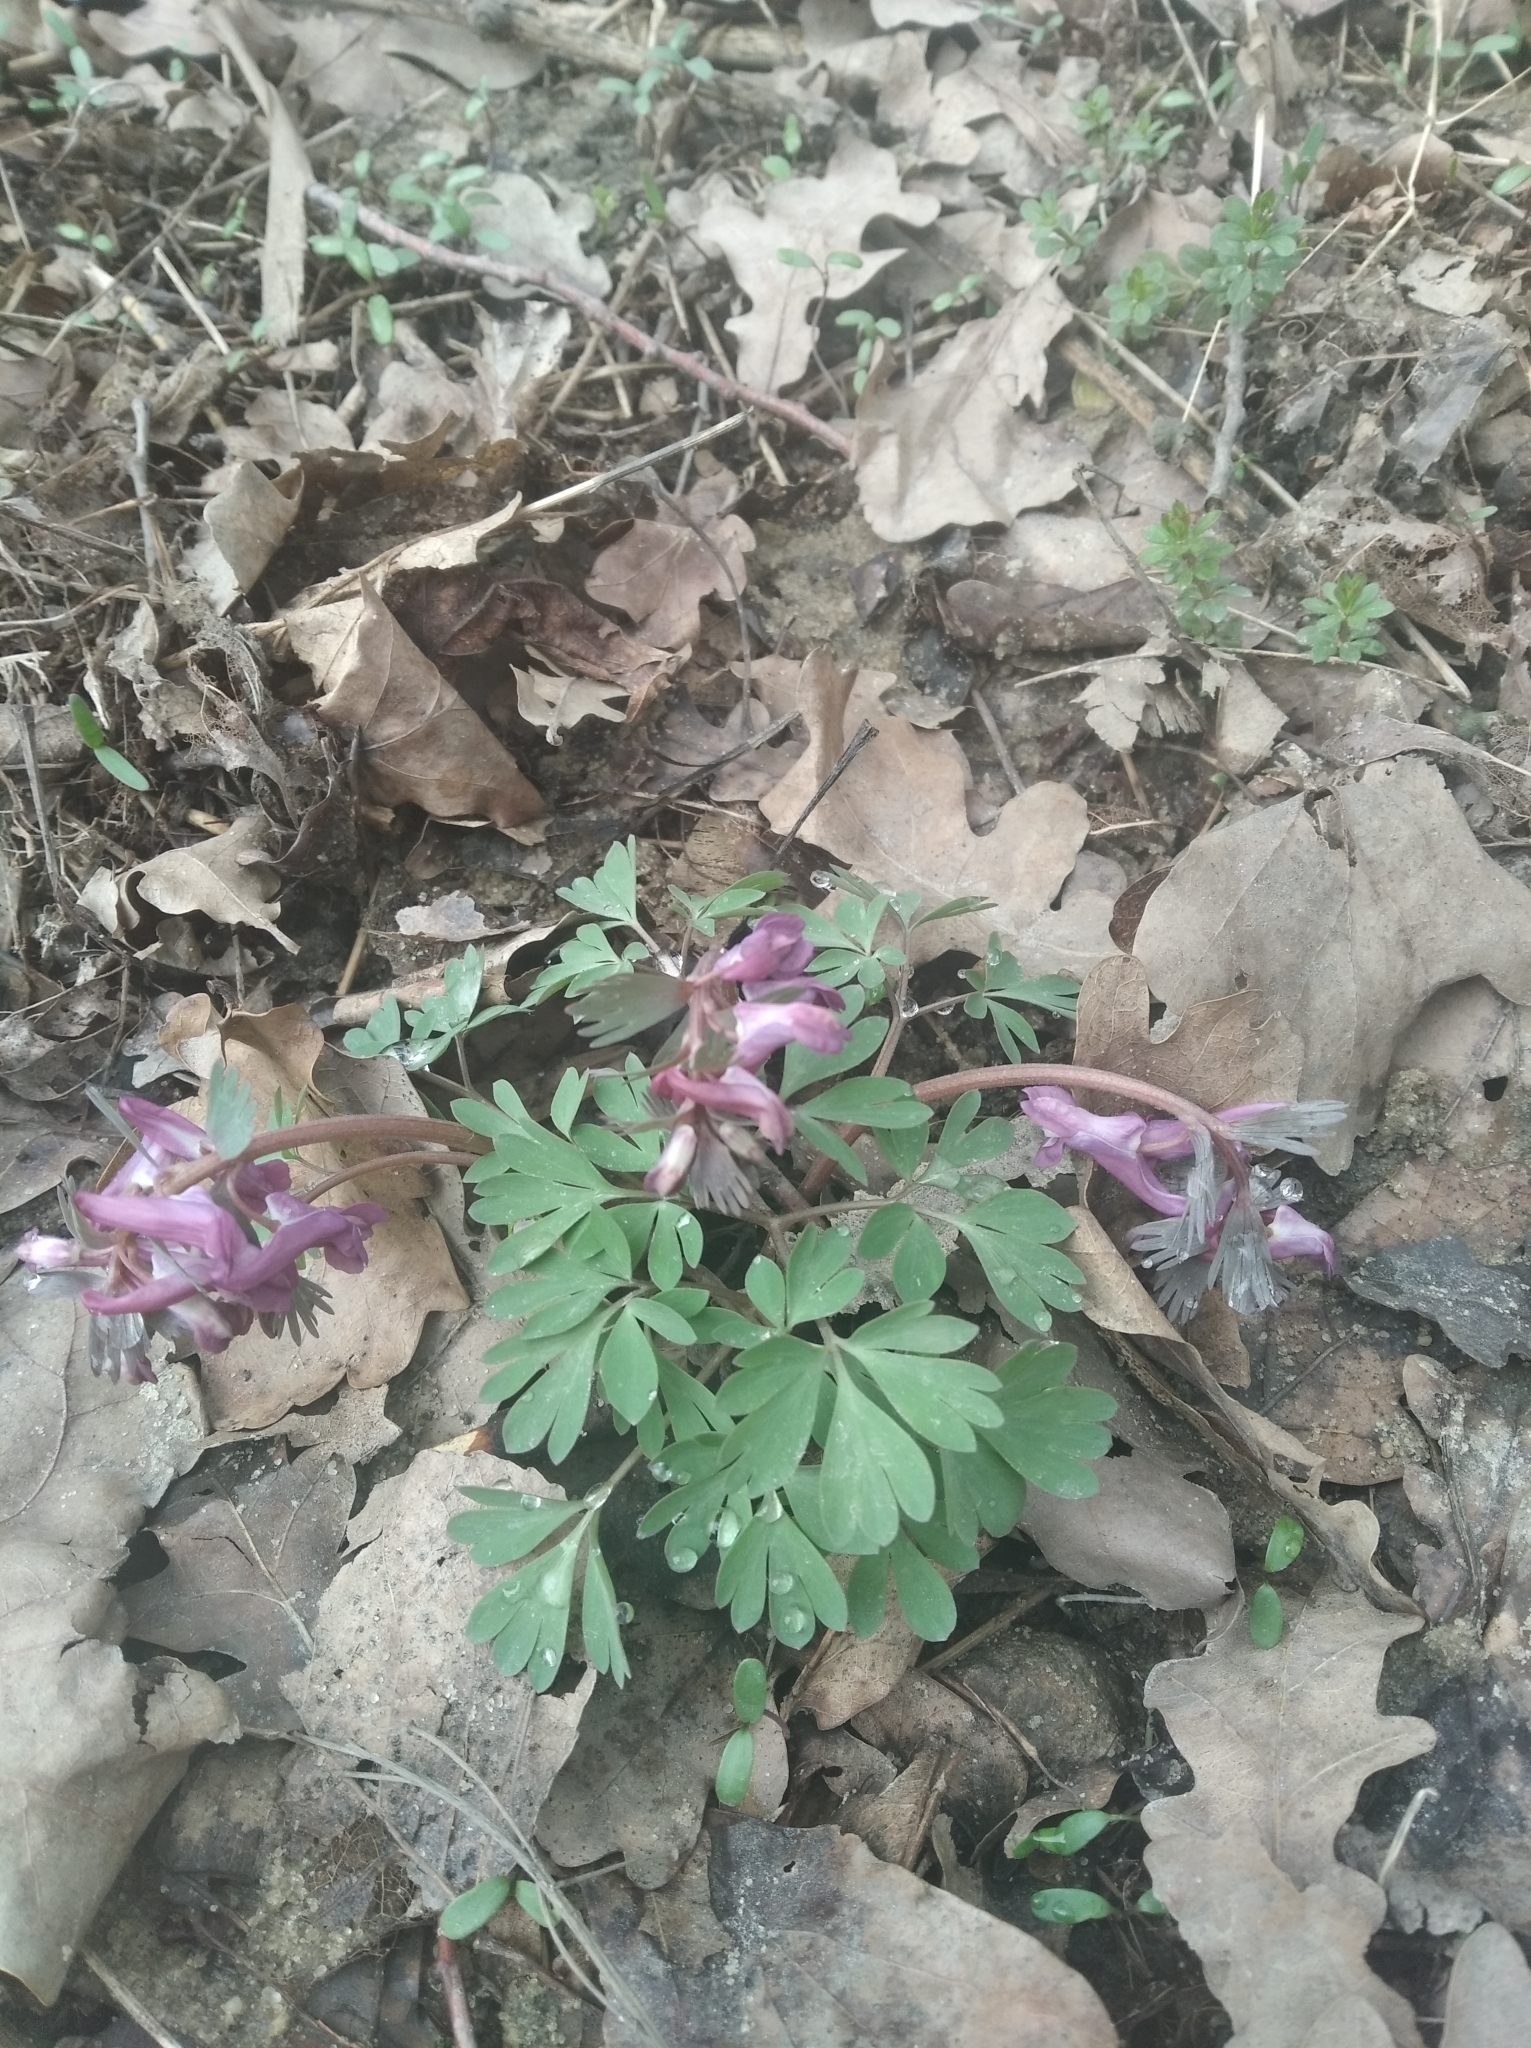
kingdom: Plantae
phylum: Tracheophyta
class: Magnoliopsida
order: Ranunculales
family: Papaveraceae
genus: Corydalis
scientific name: Corydalis solida
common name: Bird-in-a-bush
